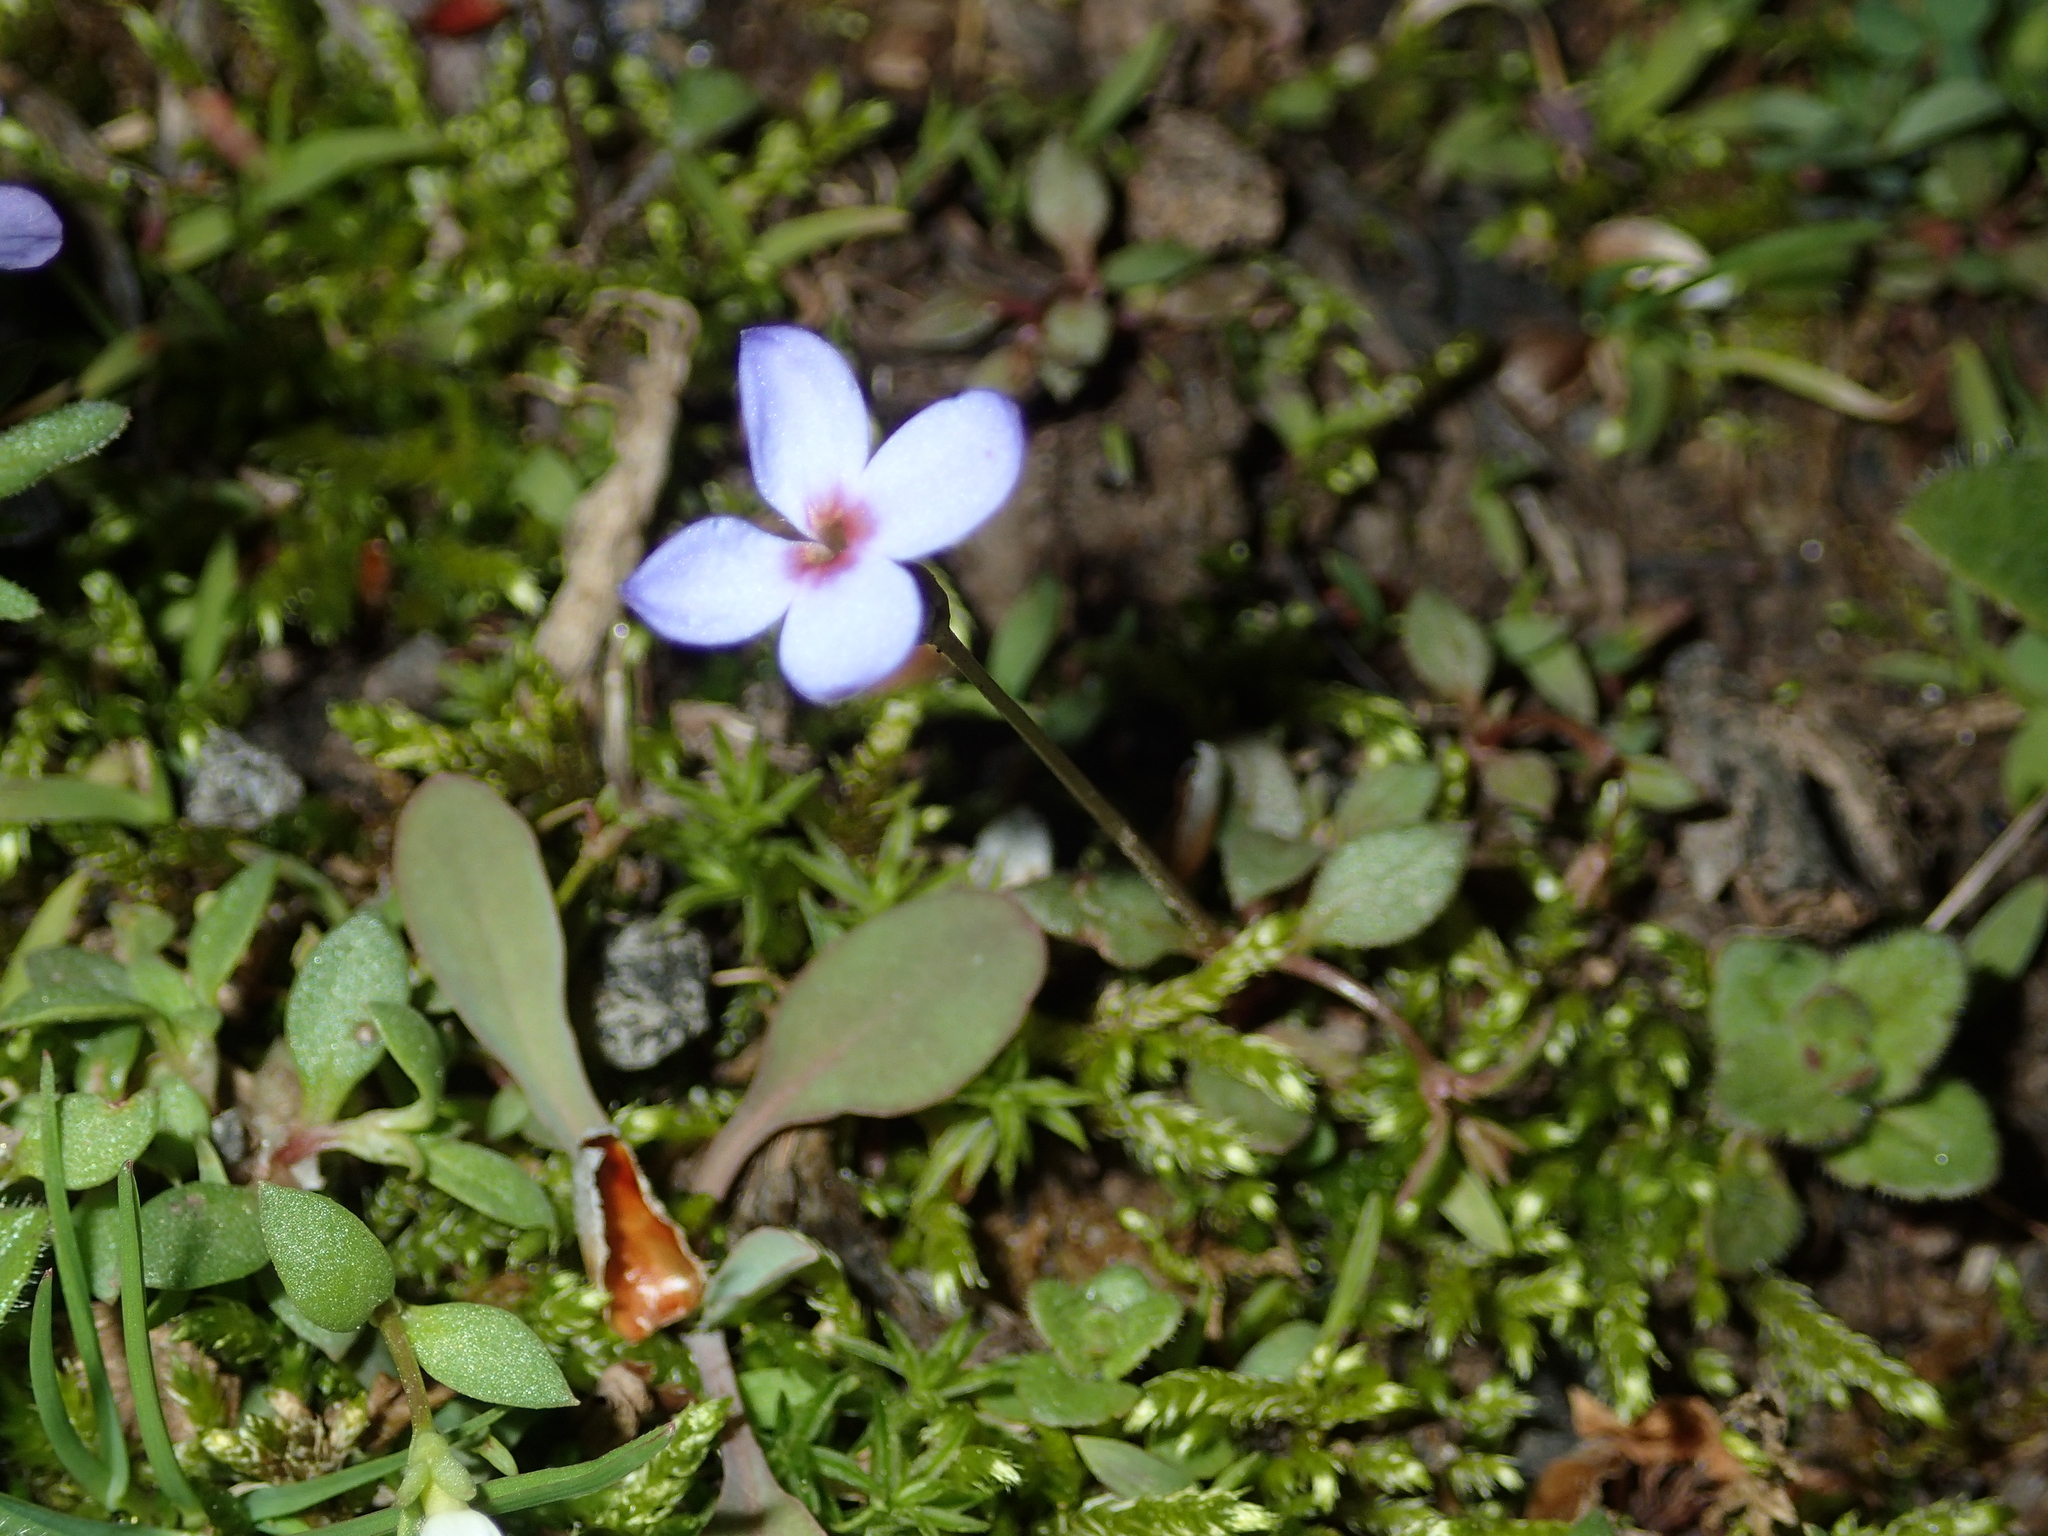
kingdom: Plantae
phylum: Tracheophyta
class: Magnoliopsida
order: Gentianales
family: Rubiaceae
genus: Houstonia
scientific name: Houstonia pusilla
